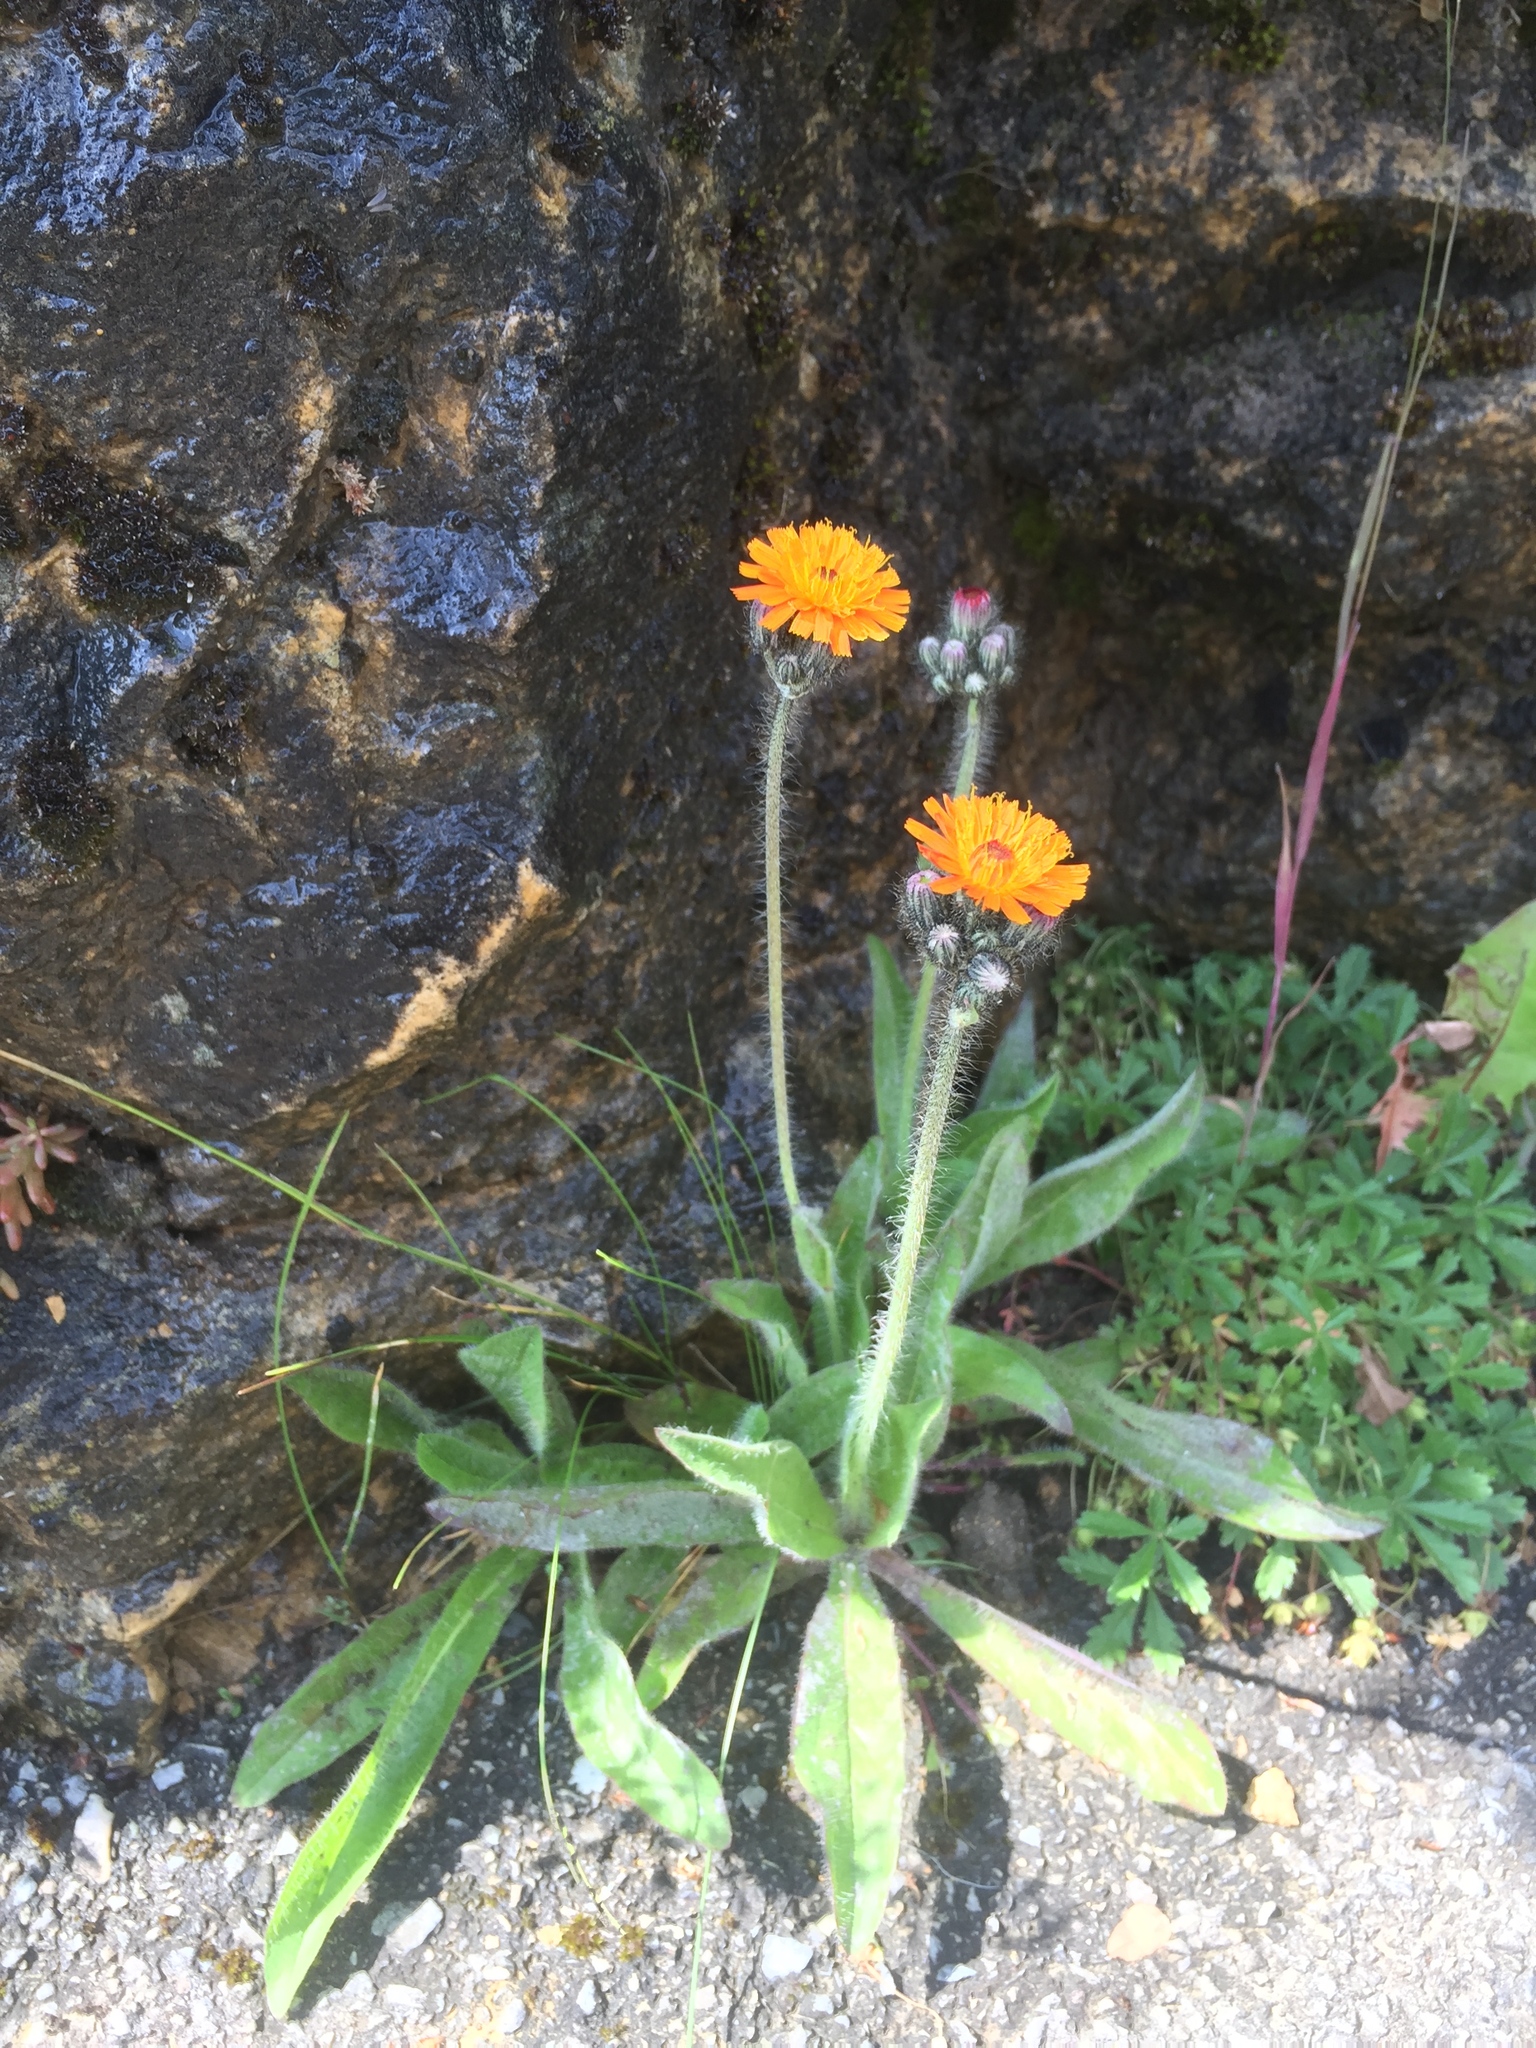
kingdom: Plantae
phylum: Tracheophyta
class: Magnoliopsida
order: Asterales
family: Asteraceae
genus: Pilosella
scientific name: Pilosella aurantiaca
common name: Fox-and-cubs
